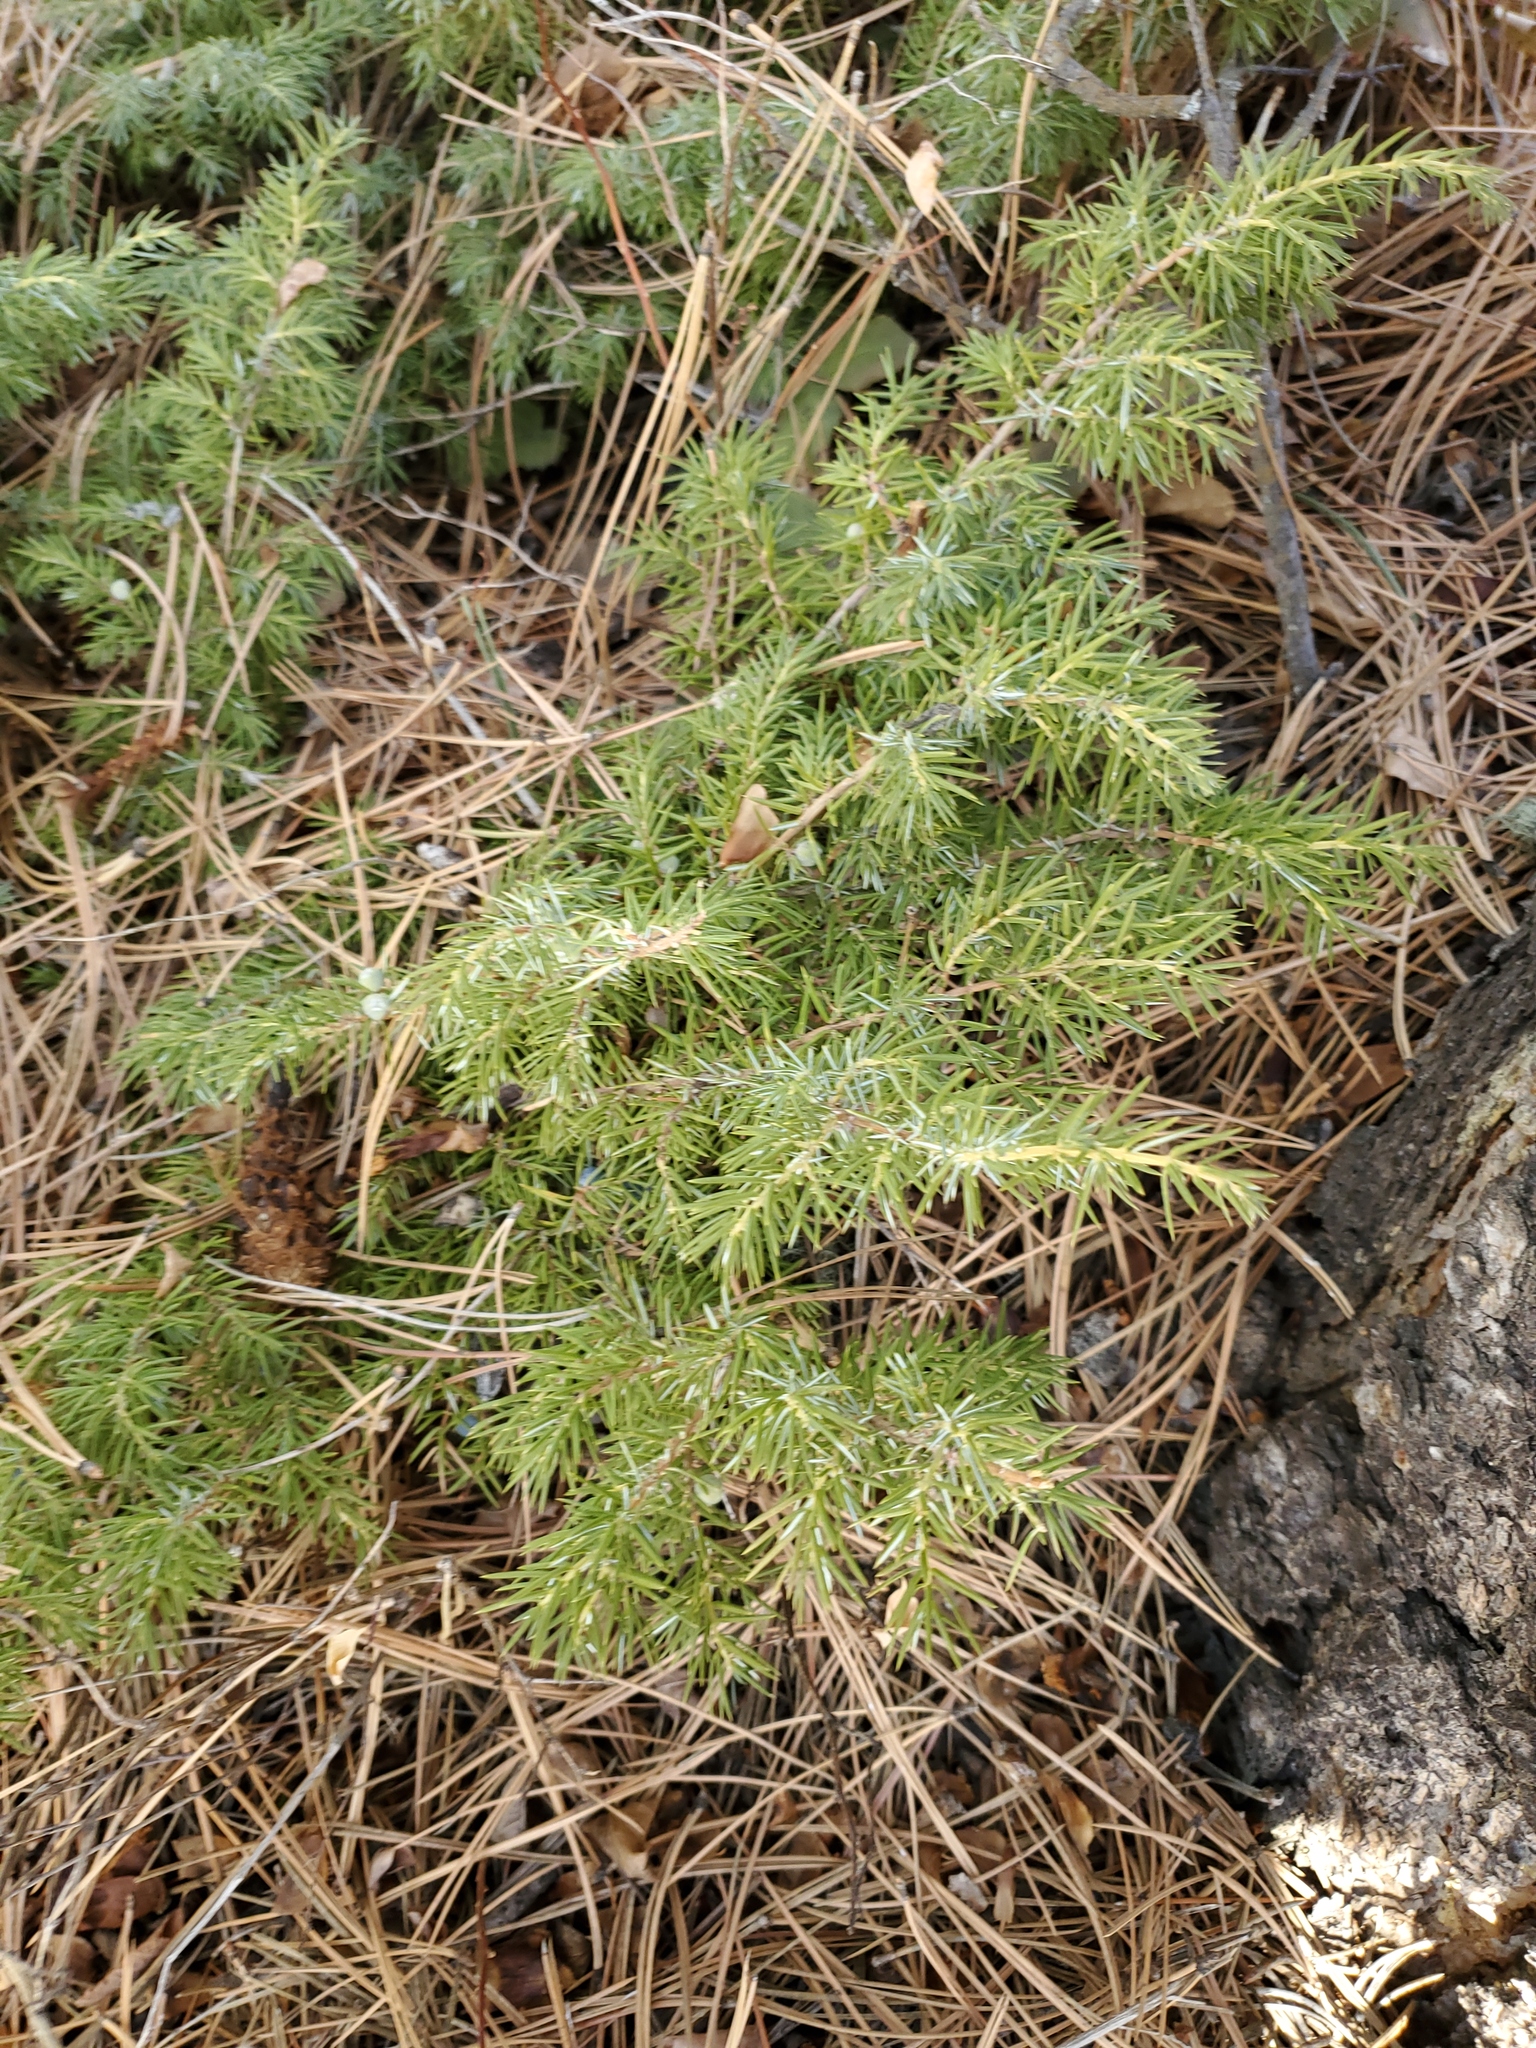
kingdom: Plantae
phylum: Tracheophyta
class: Pinopsida
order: Pinales
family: Cupressaceae
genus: Juniperus
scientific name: Juniperus communis
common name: Common juniper
